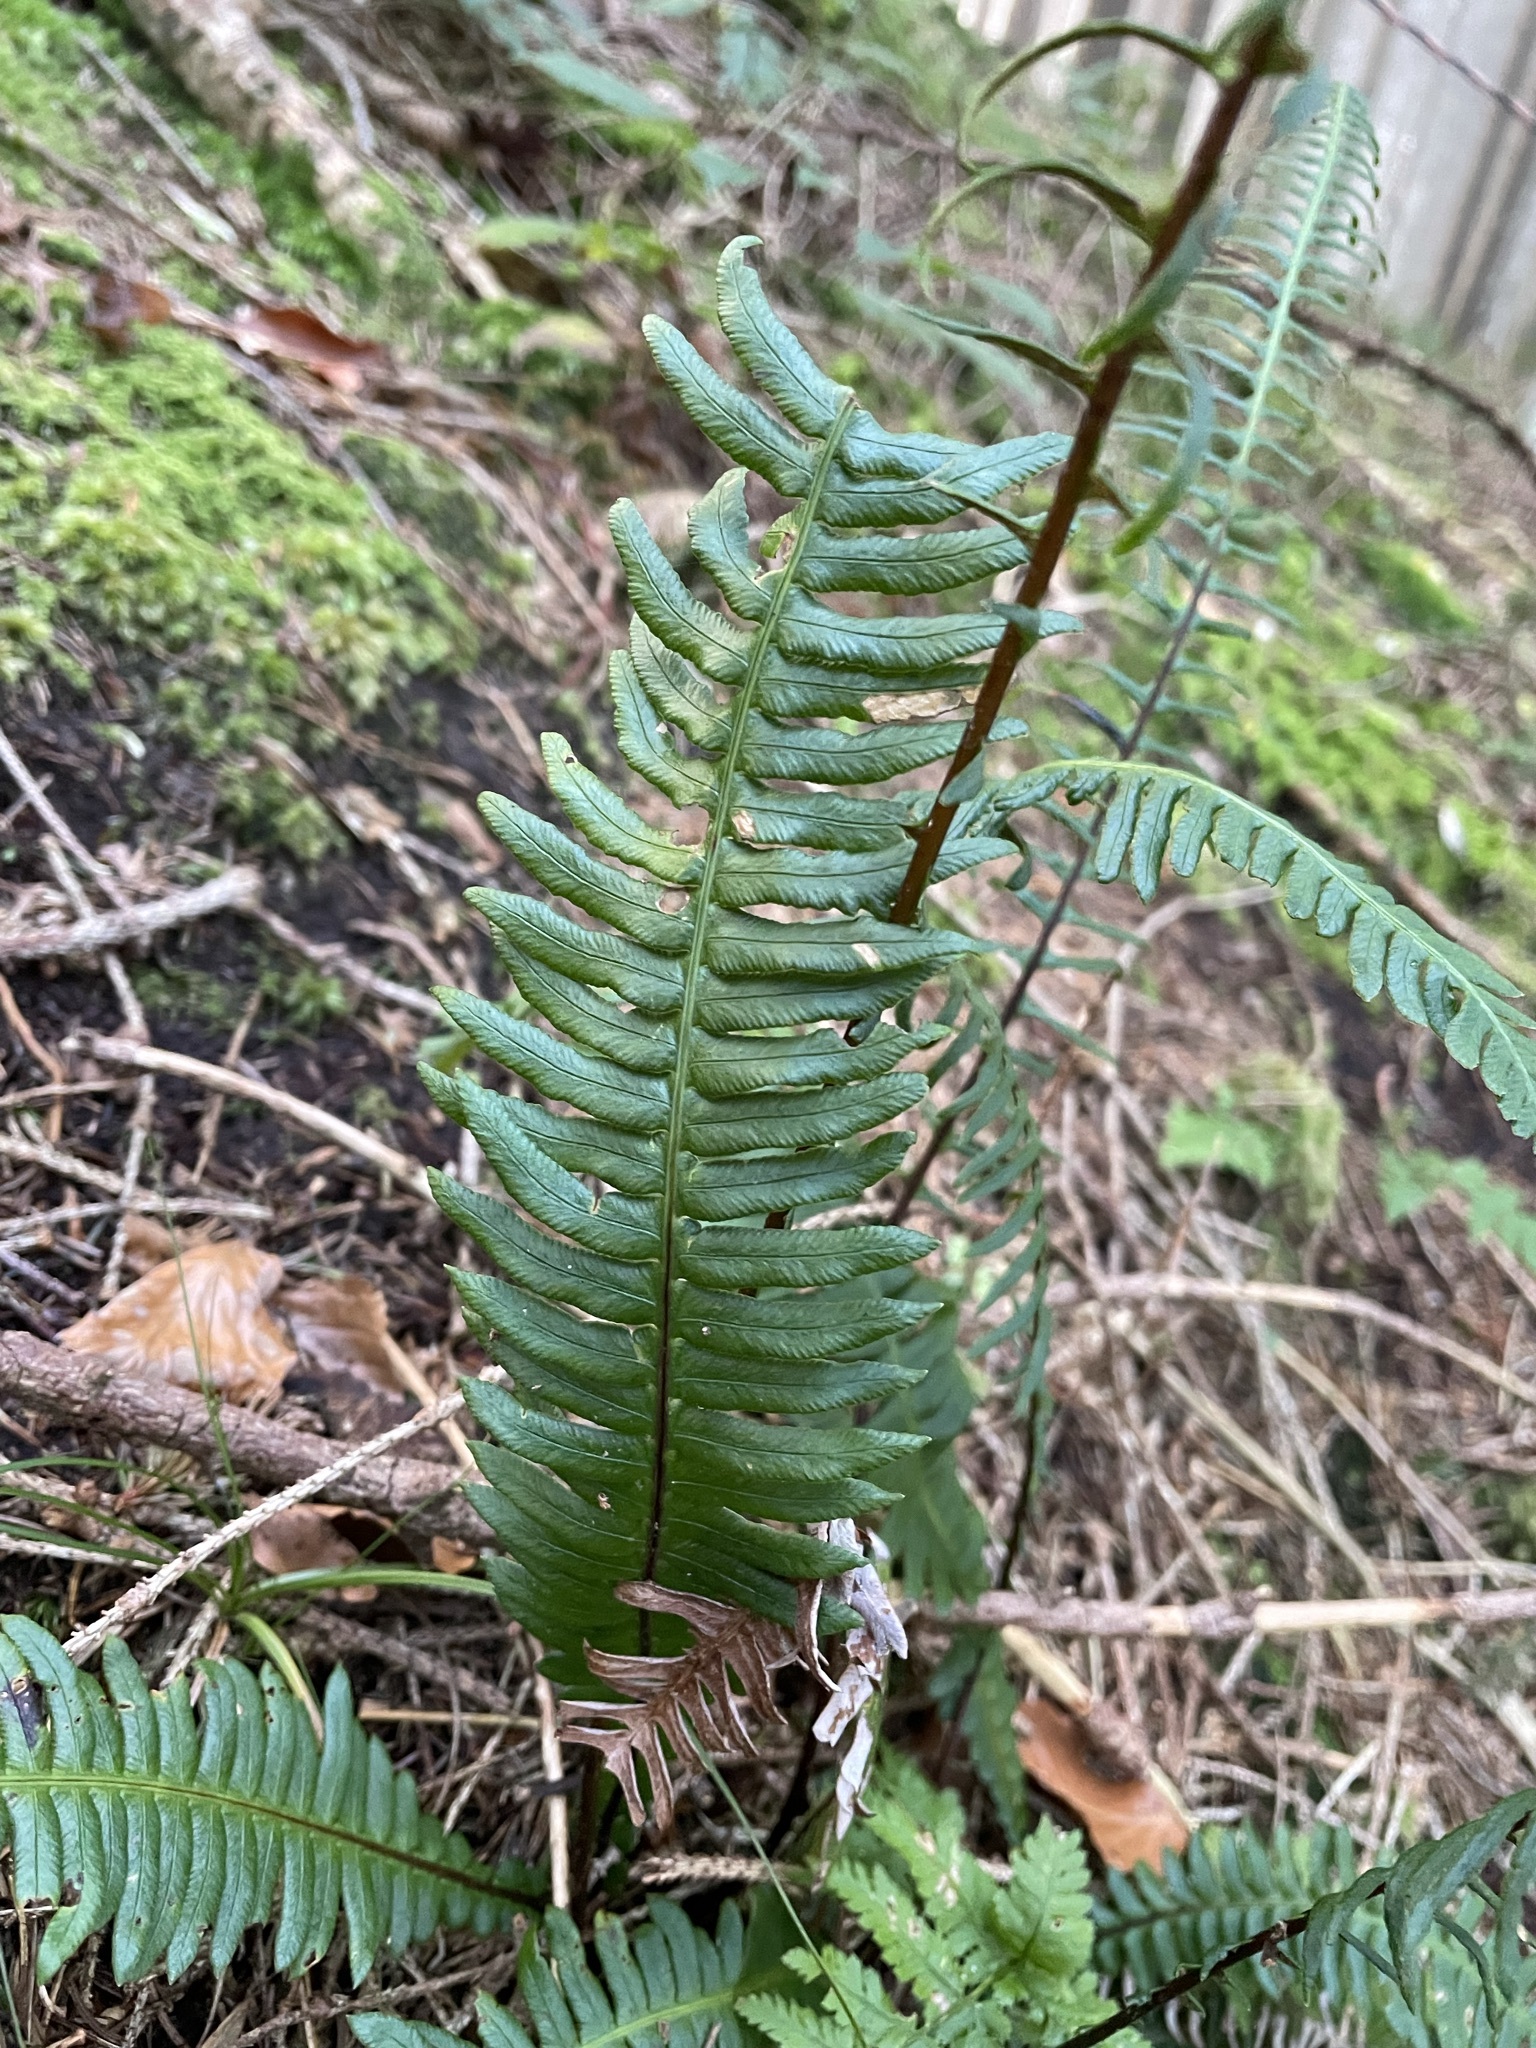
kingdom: Plantae
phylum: Tracheophyta
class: Polypodiopsida
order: Polypodiales
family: Blechnaceae
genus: Struthiopteris
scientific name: Struthiopteris spicant
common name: Deer fern
